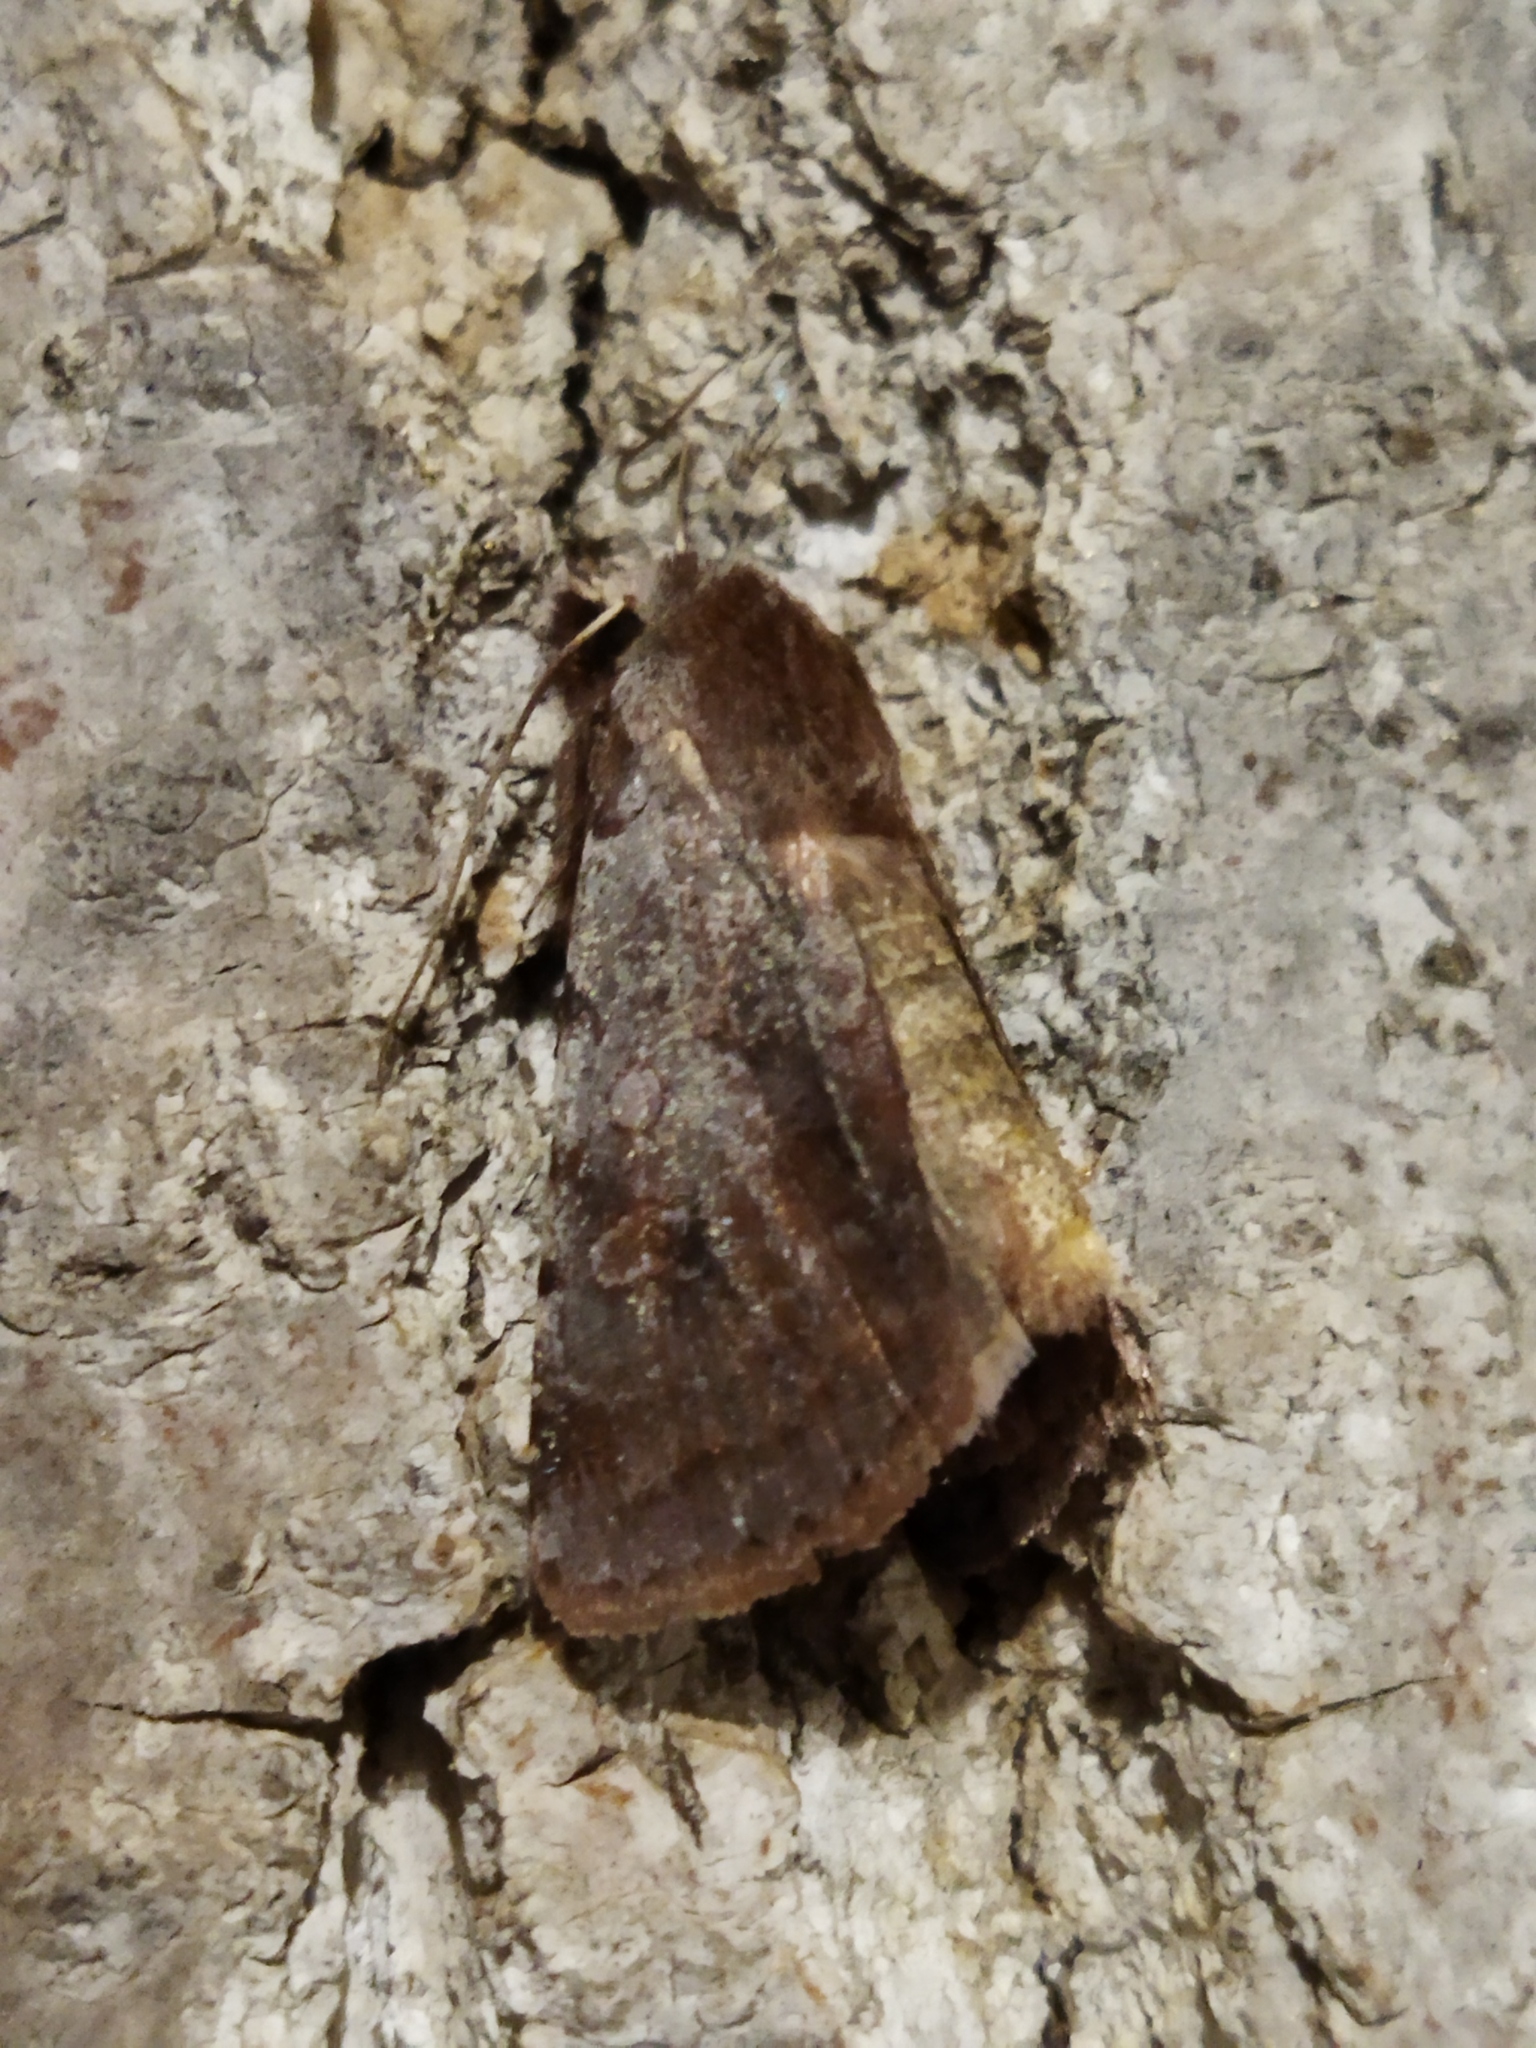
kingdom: Animalia
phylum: Arthropoda
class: Insecta
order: Lepidoptera
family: Noctuidae
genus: Cerastis
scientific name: Cerastis rubricosa
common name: Red chestnut
